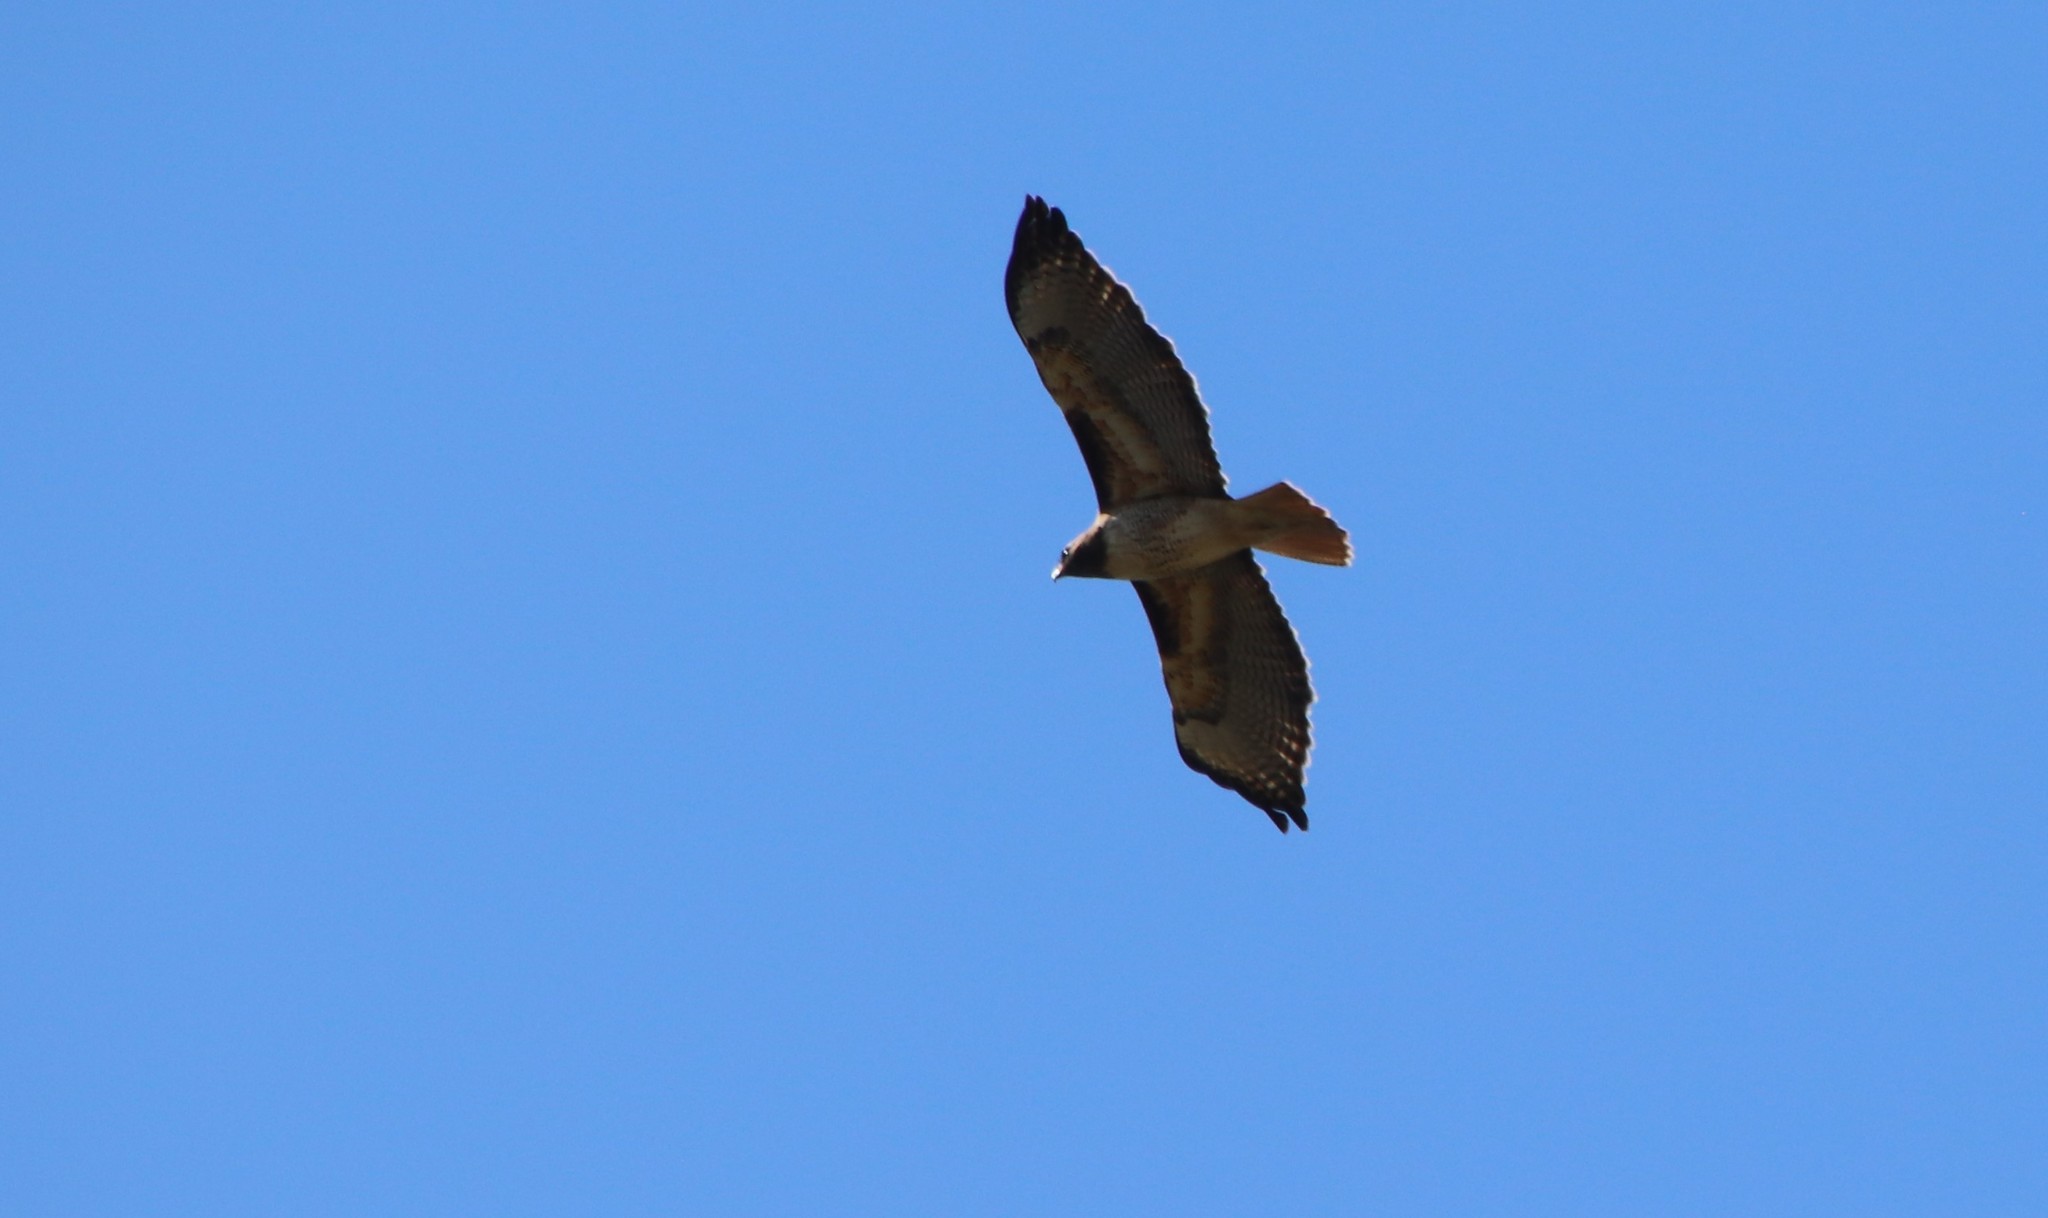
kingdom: Animalia
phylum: Chordata
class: Aves
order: Accipitriformes
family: Accipitridae
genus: Buteo
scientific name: Buteo jamaicensis
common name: Red-tailed hawk
